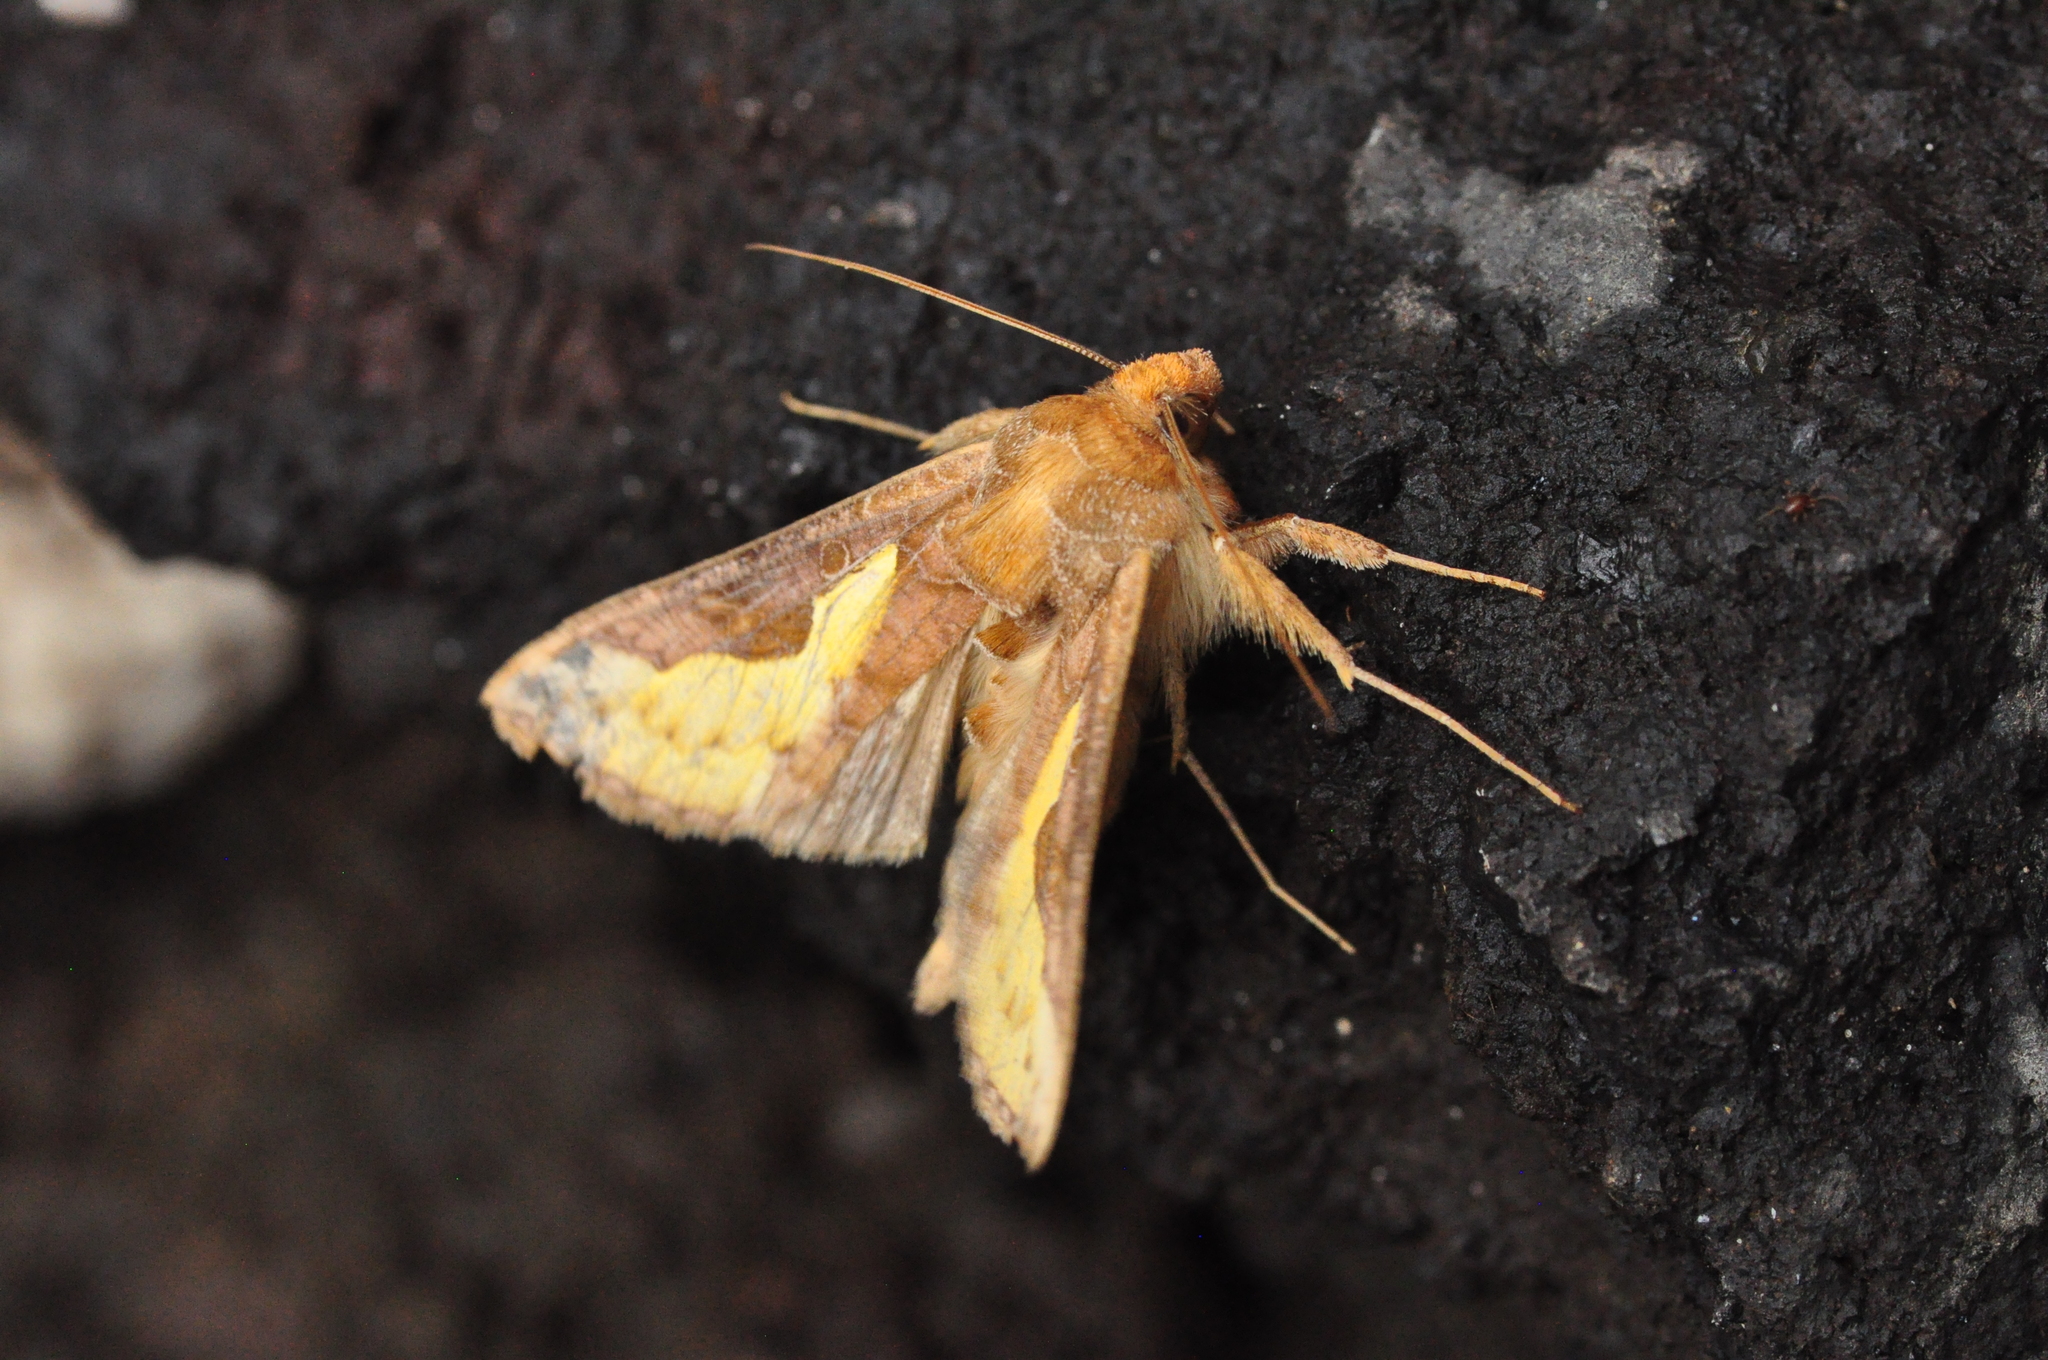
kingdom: Animalia
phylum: Arthropoda
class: Insecta
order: Lepidoptera
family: Noctuidae
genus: Thysanoplusia
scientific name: Thysanoplusia orichalcea
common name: Slender burnished brass, golden plusia
